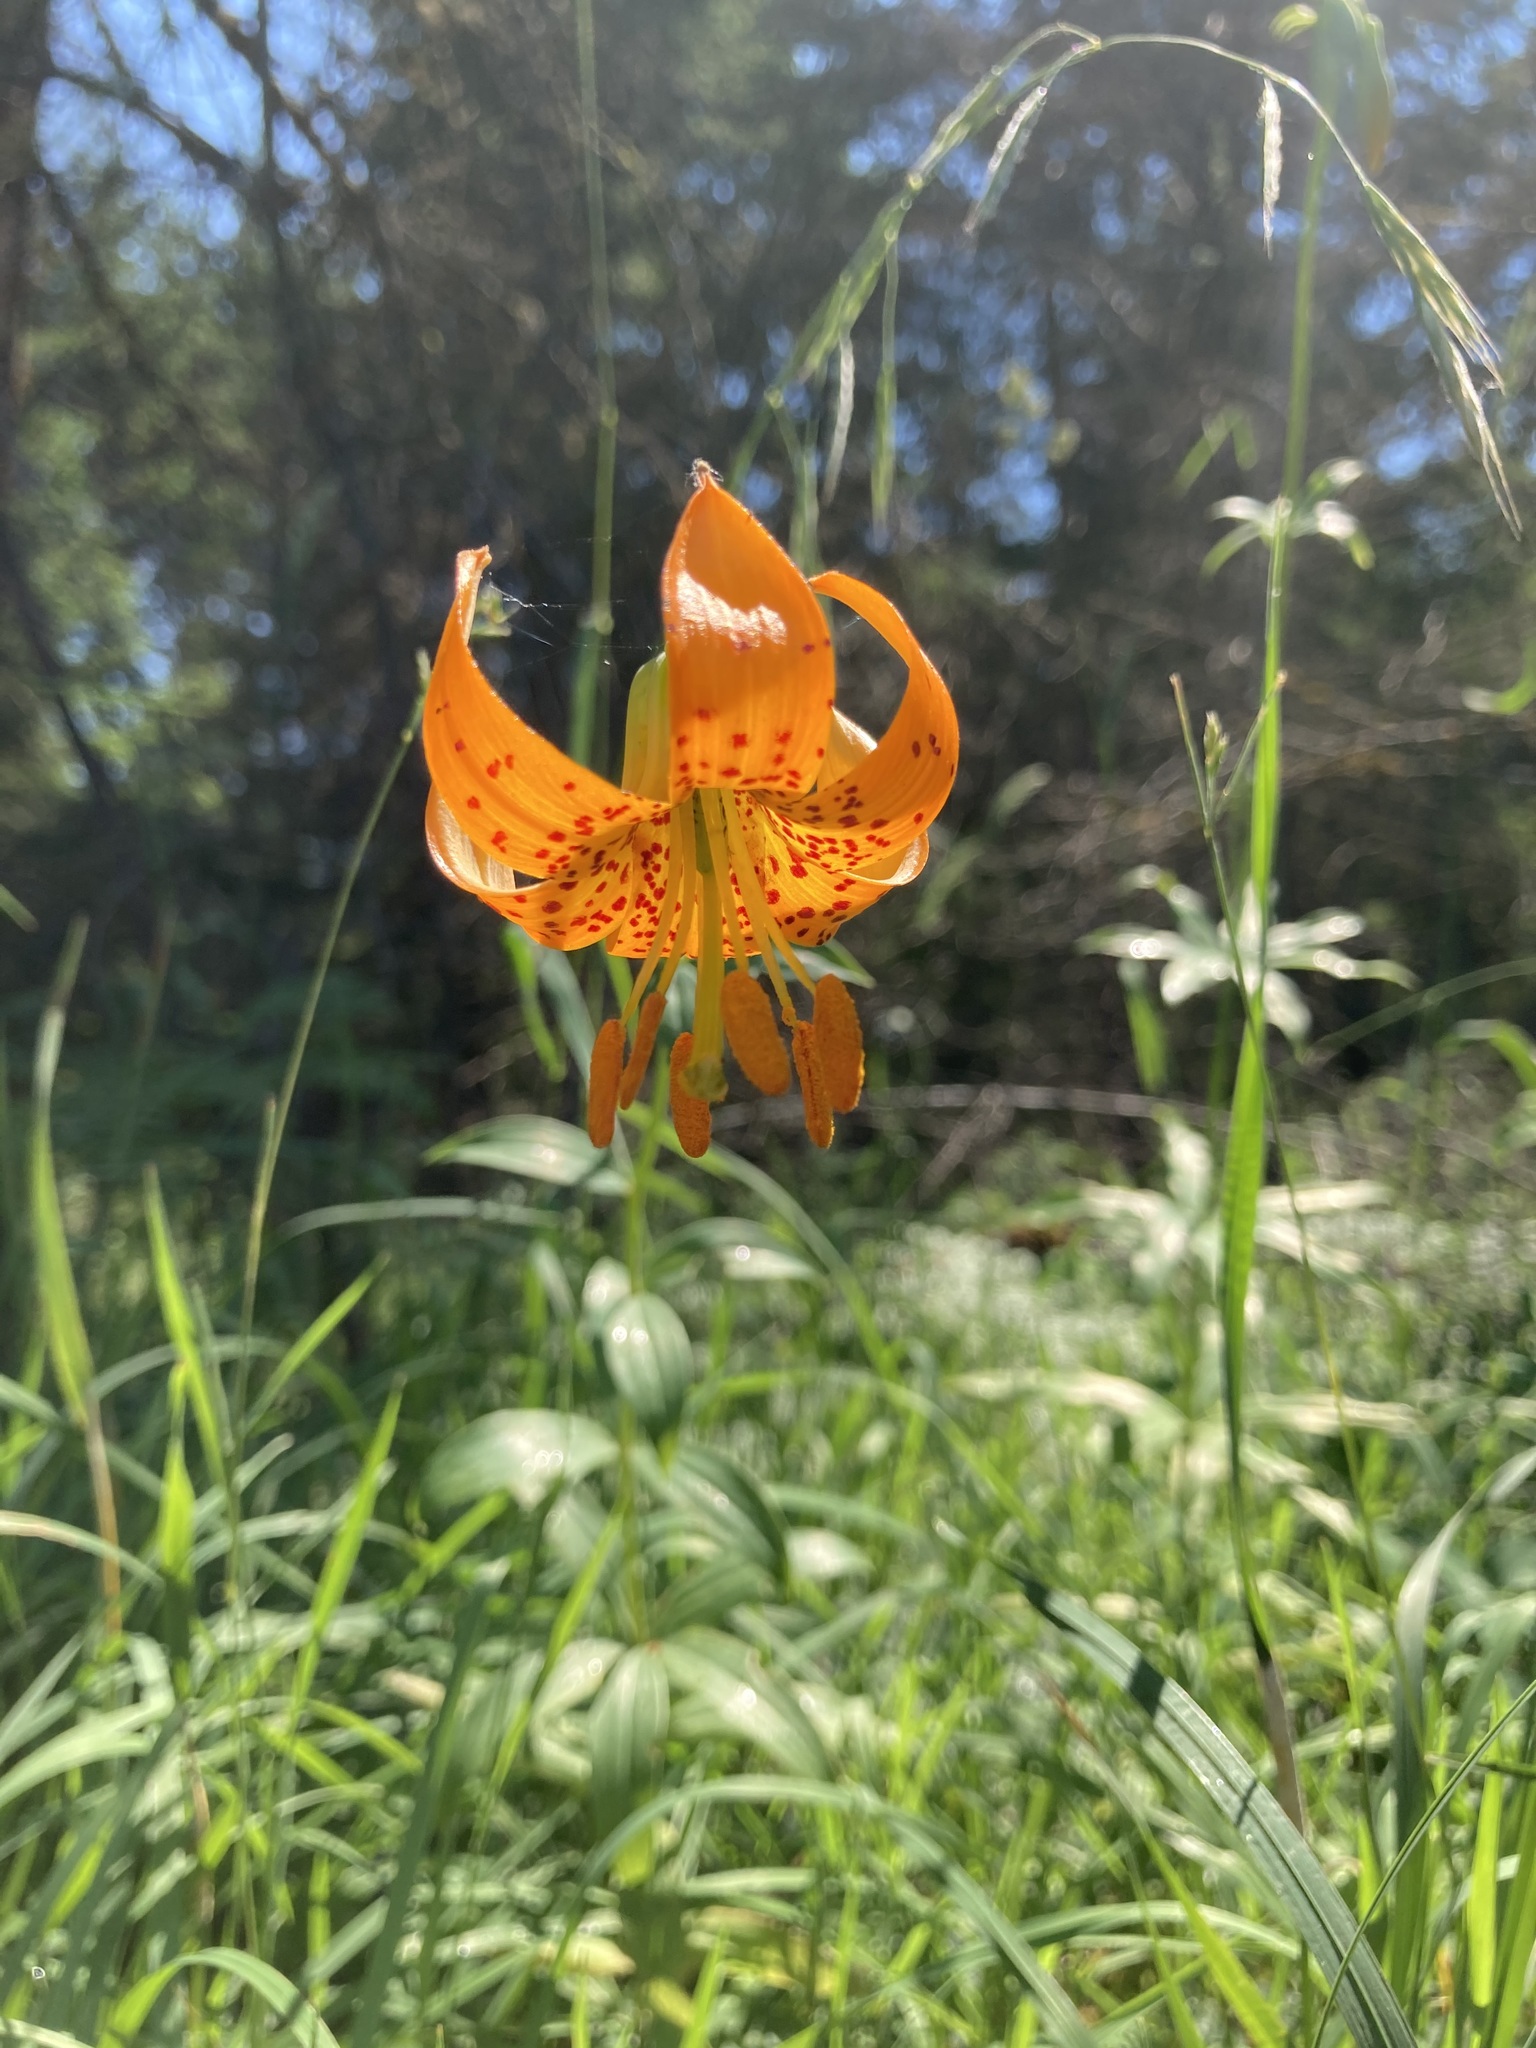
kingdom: Plantae
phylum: Tracheophyta
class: Liliopsida
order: Liliales
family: Liliaceae
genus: Lilium
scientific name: Lilium columbianum
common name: Columbia lily
